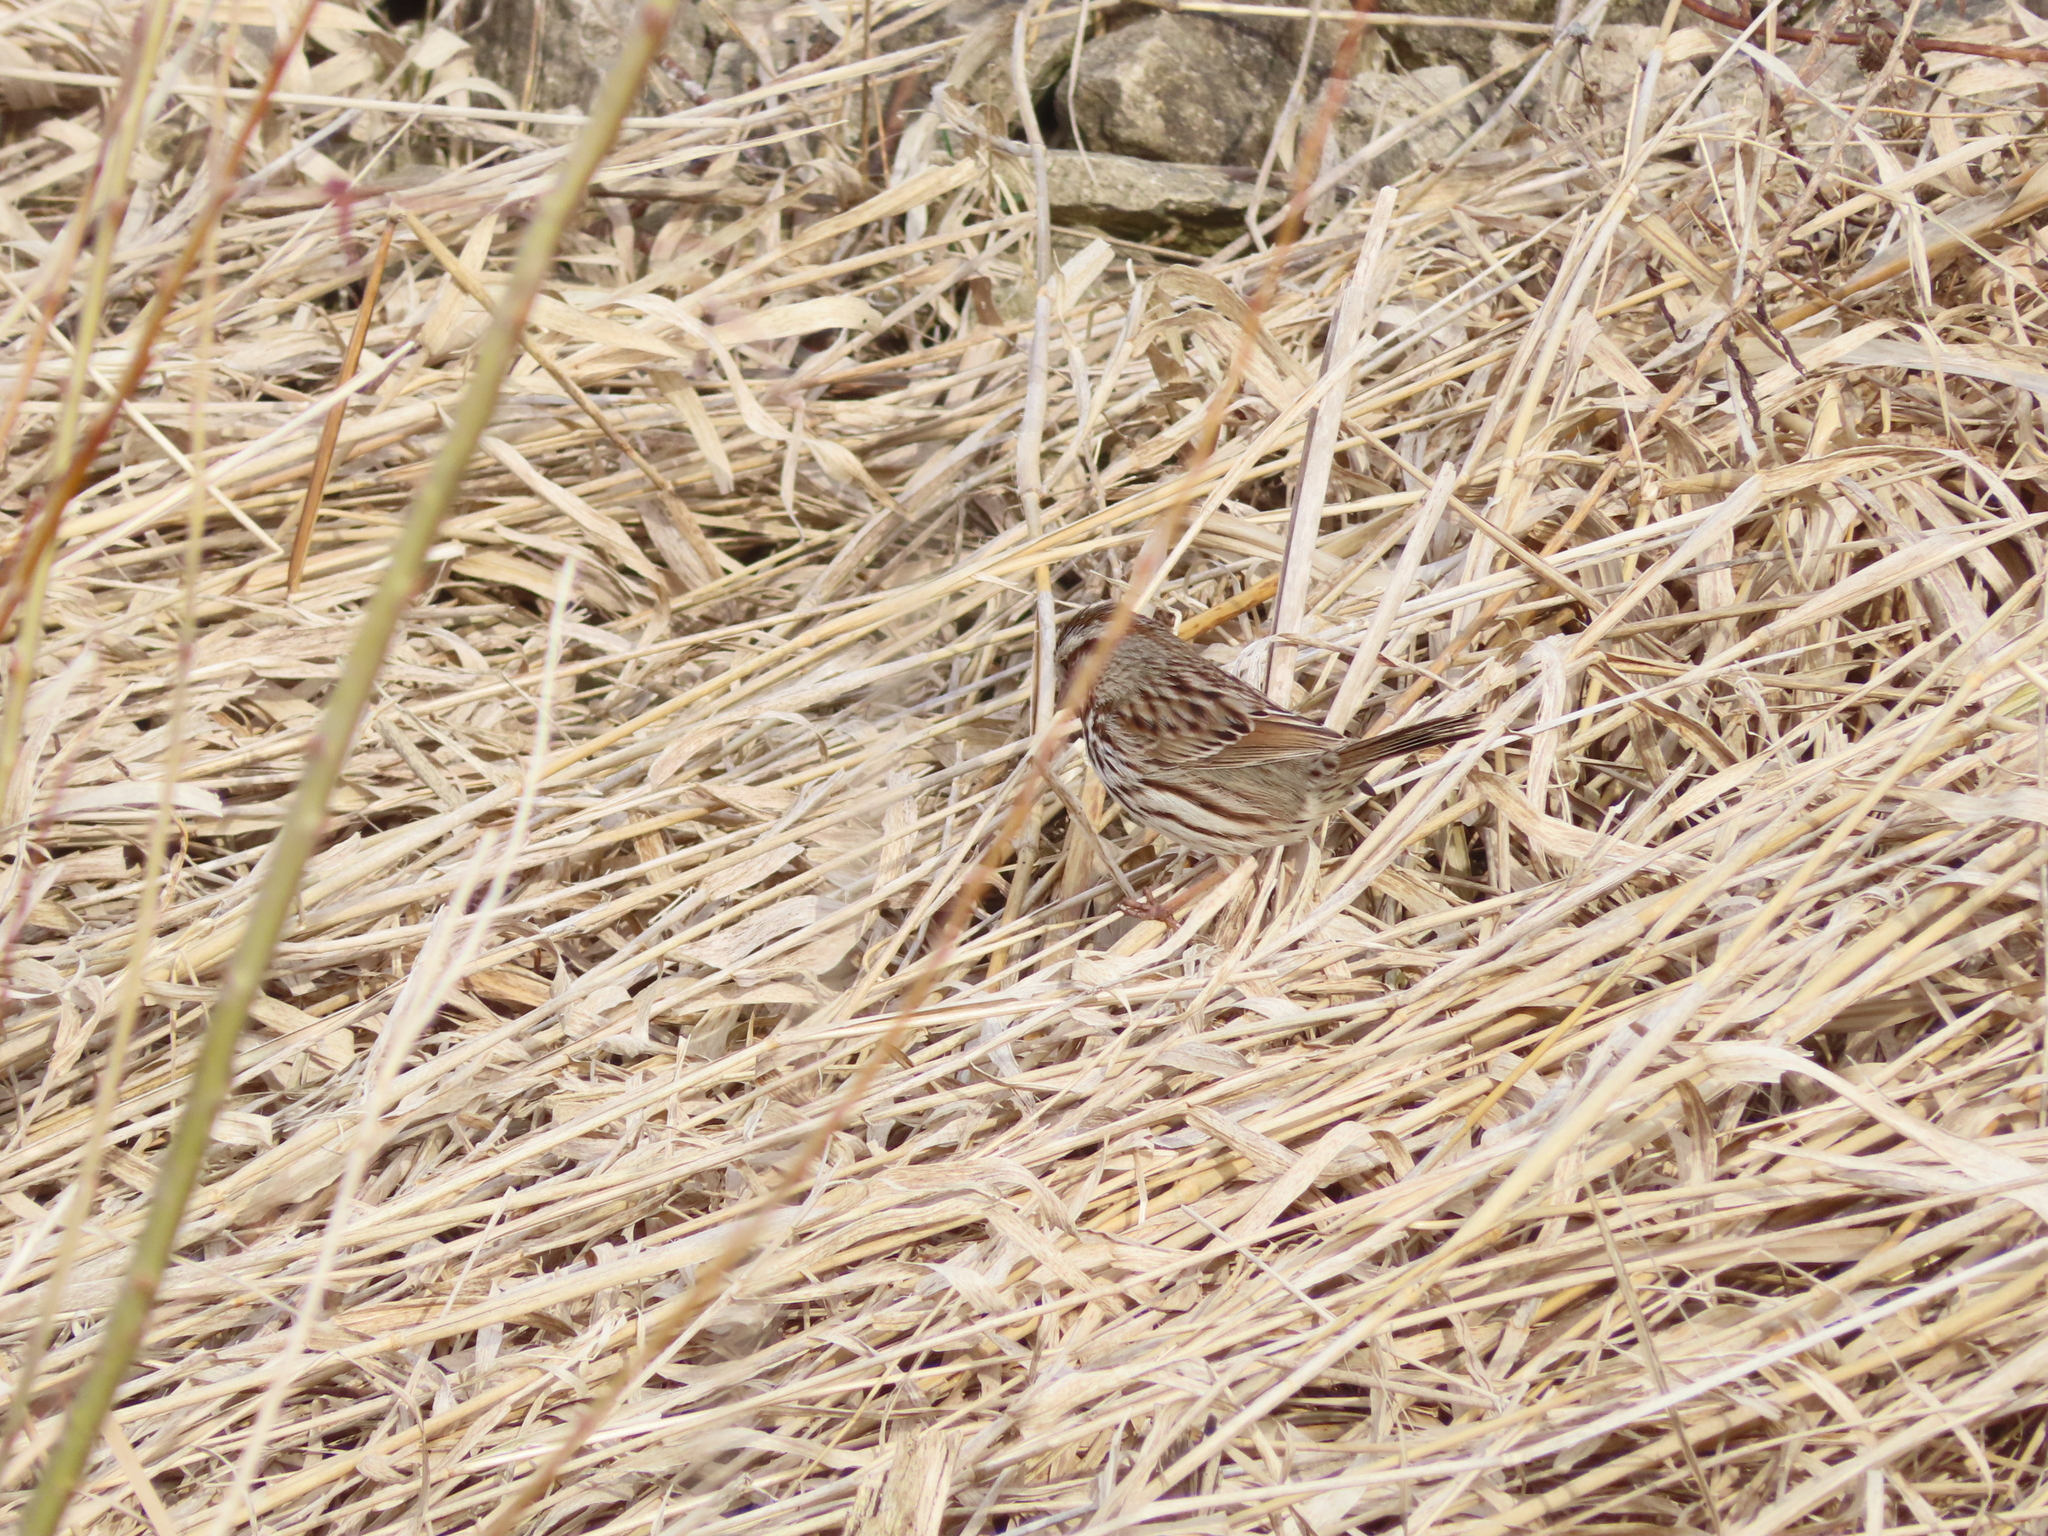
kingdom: Animalia
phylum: Chordata
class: Aves
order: Passeriformes
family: Passerellidae
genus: Melospiza
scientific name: Melospiza melodia
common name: Song sparrow
